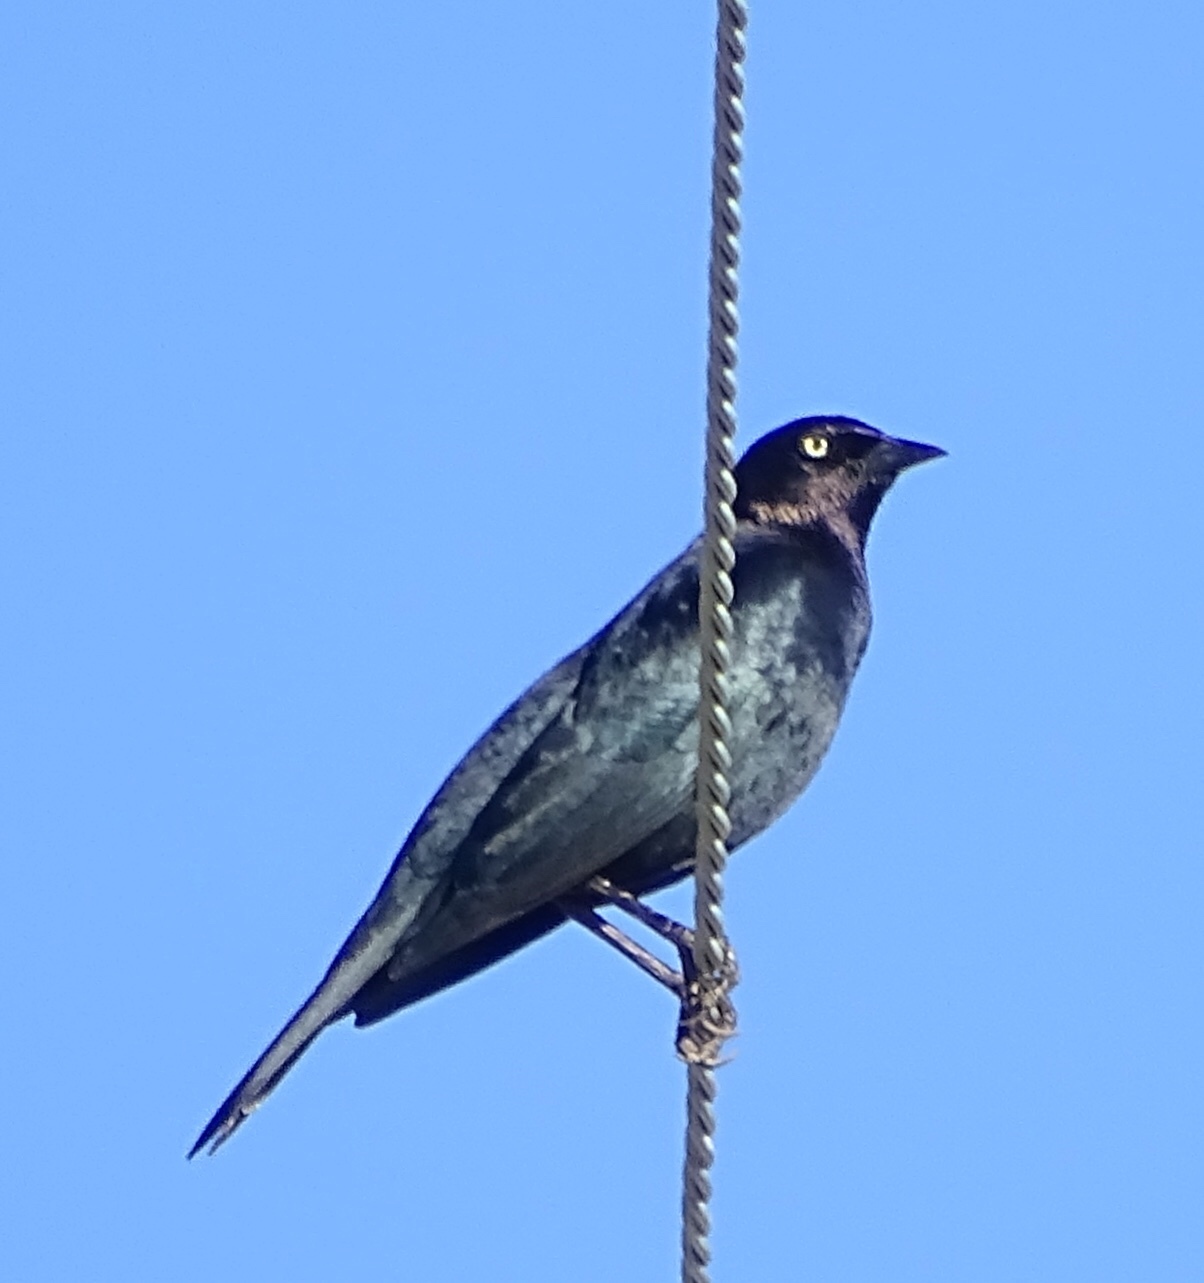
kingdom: Animalia
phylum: Chordata
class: Aves
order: Passeriformes
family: Icteridae
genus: Euphagus
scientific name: Euphagus cyanocephalus
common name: Brewer's blackbird
